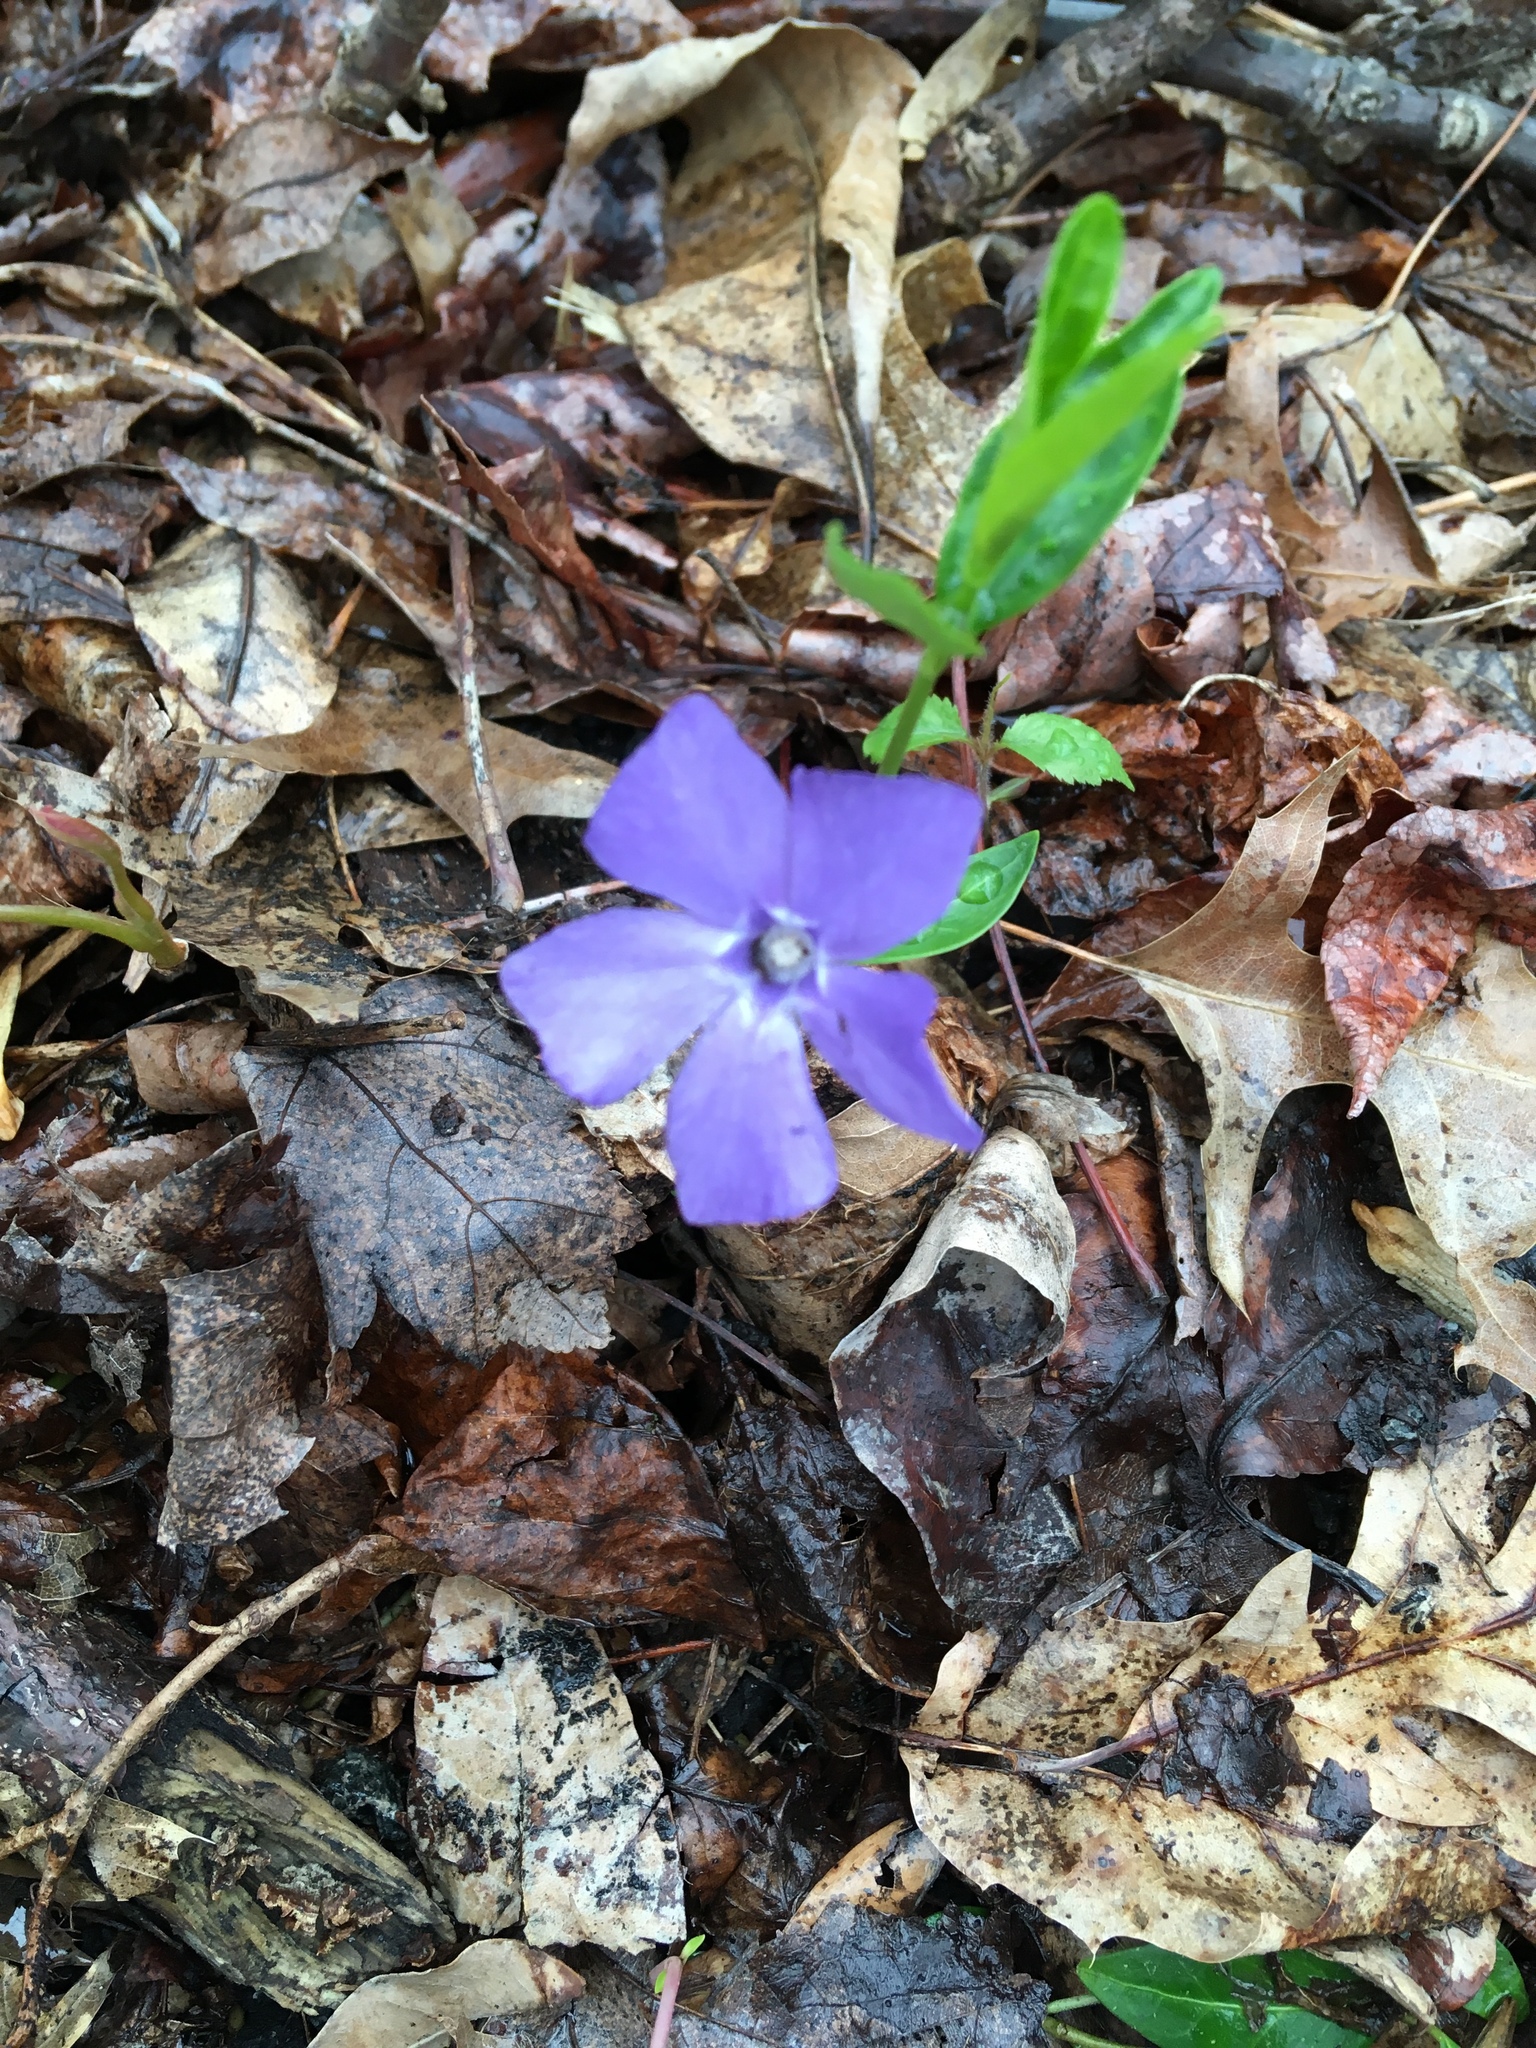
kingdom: Plantae
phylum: Tracheophyta
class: Magnoliopsida
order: Gentianales
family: Apocynaceae
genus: Vinca
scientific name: Vinca minor
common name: Lesser periwinkle
